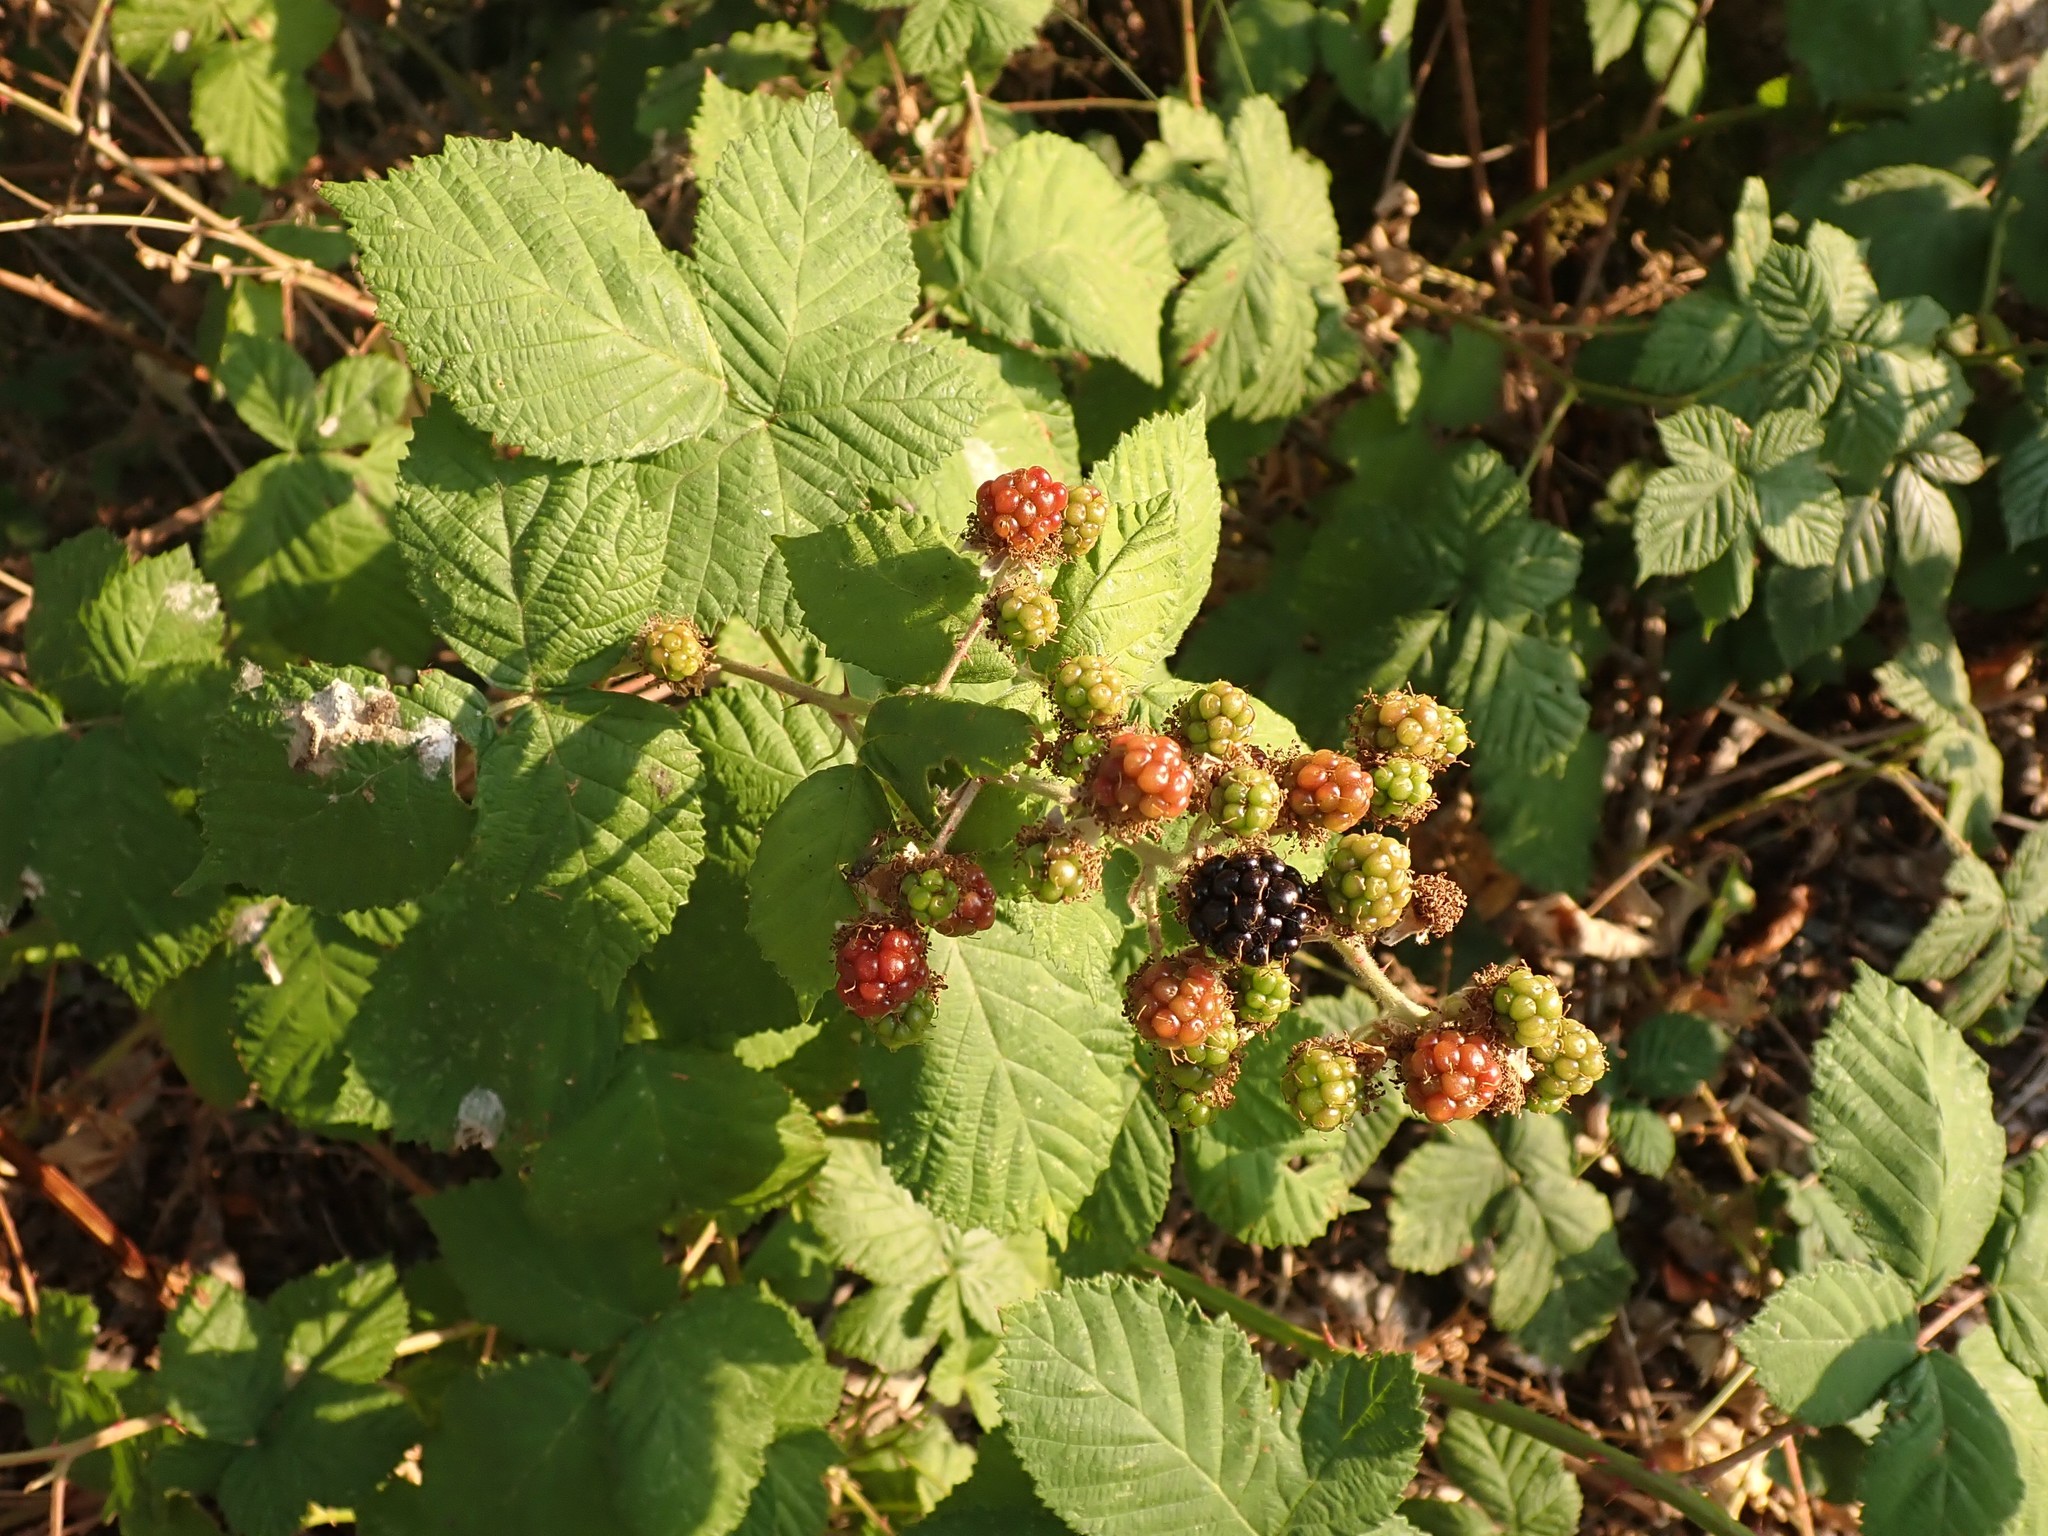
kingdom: Plantae
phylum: Tracheophyta
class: Magnoliopsida
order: Rosales
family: Rosaceae
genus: Rubus
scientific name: Rubus bifrons
